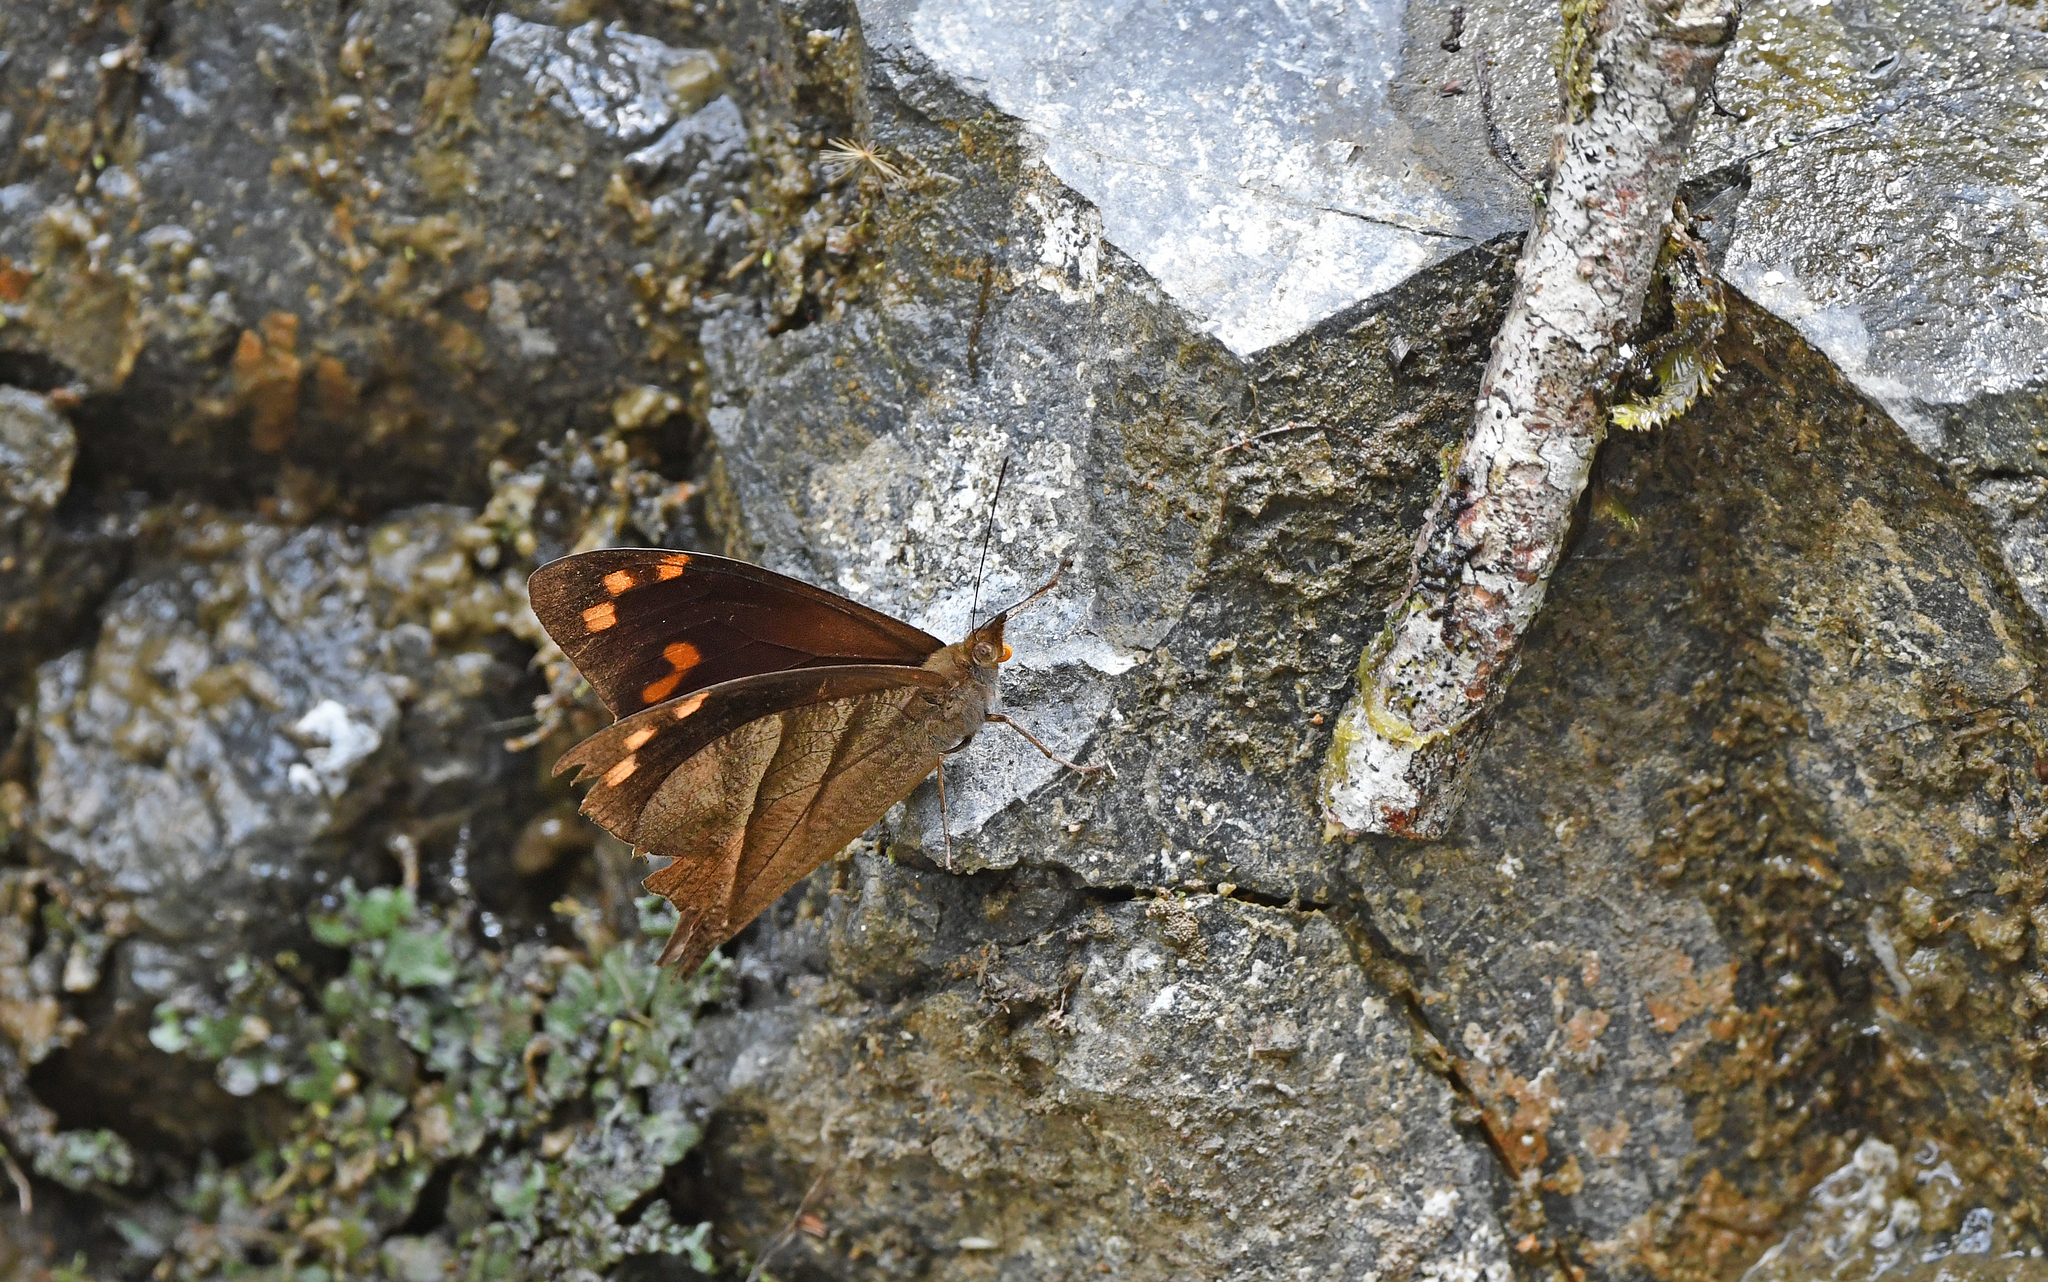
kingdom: Animalia
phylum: Arthropoda
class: Insecta
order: Lepidoptera
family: Nymphalidae
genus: Corades
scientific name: Corades enyo
